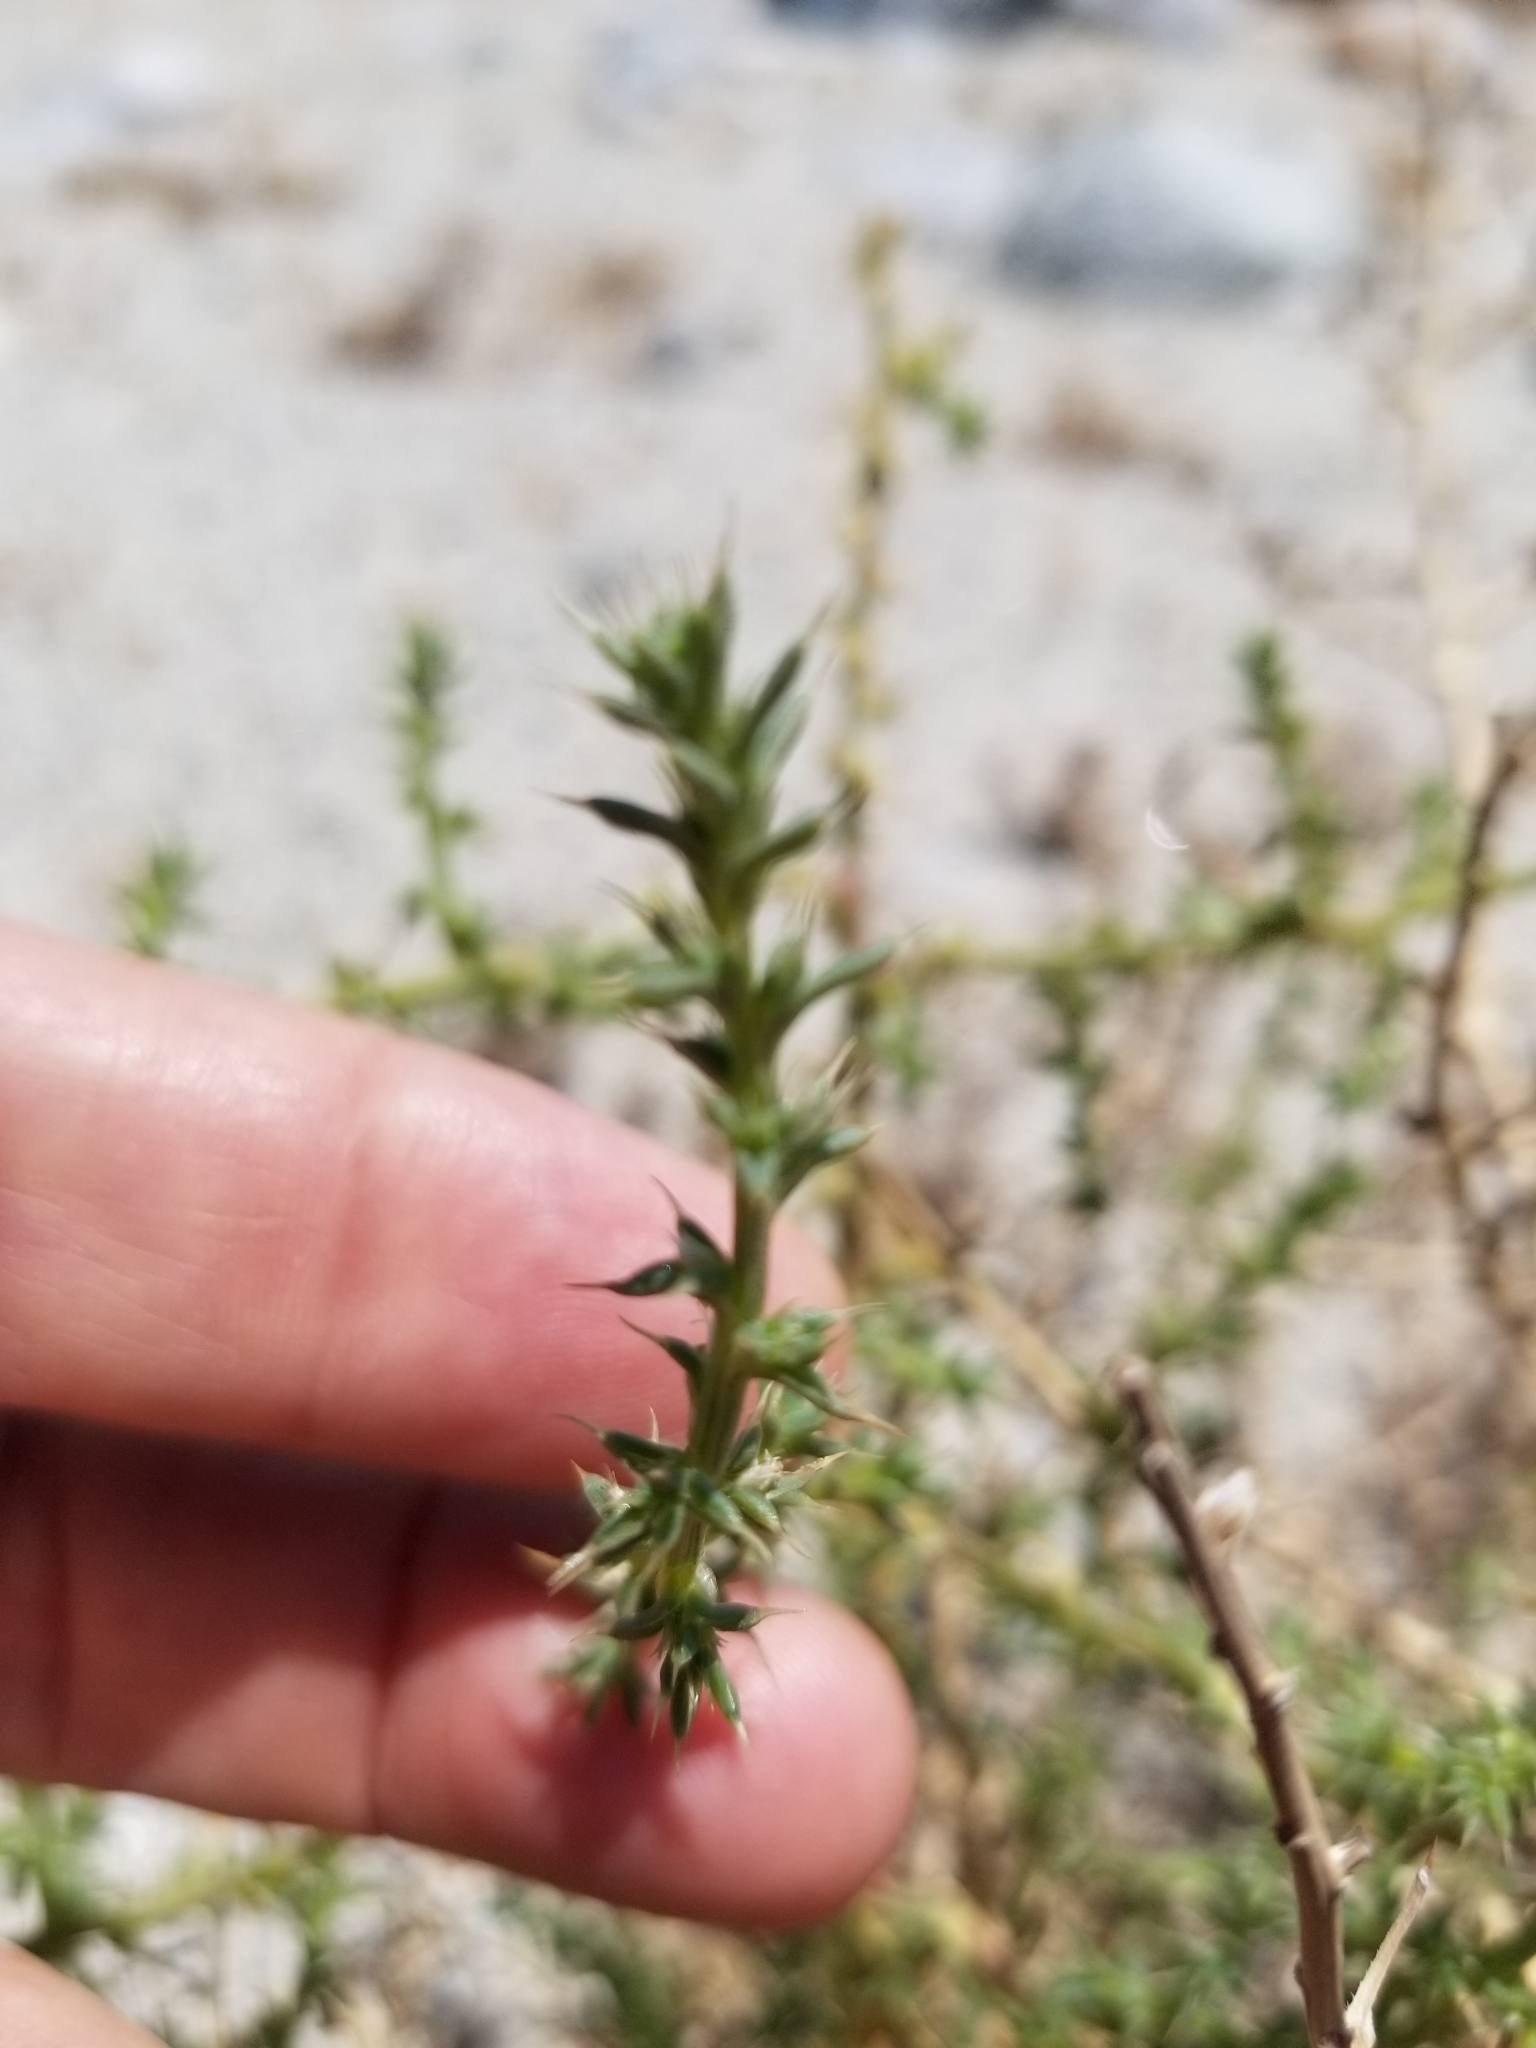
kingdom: Plantae
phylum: Tracheophyta
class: Magnoliopsida
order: Caryophyllales
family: Amaranthaceae
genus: Salsola
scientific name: Salsola tragus
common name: Prickly russian thistle
